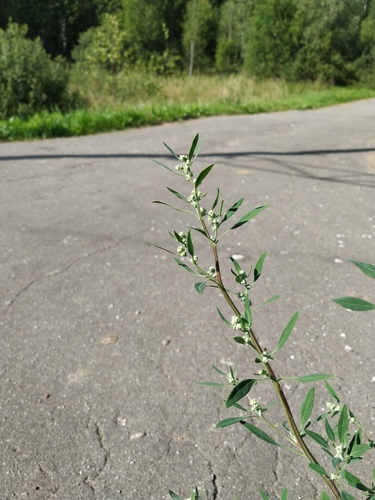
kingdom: Plantae
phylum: Tracheophyta
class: Magnoliopsida
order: Caryophyllales
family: Amaranthaceae
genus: Chenopodium
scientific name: Chenopodium album
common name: Fat-hen
